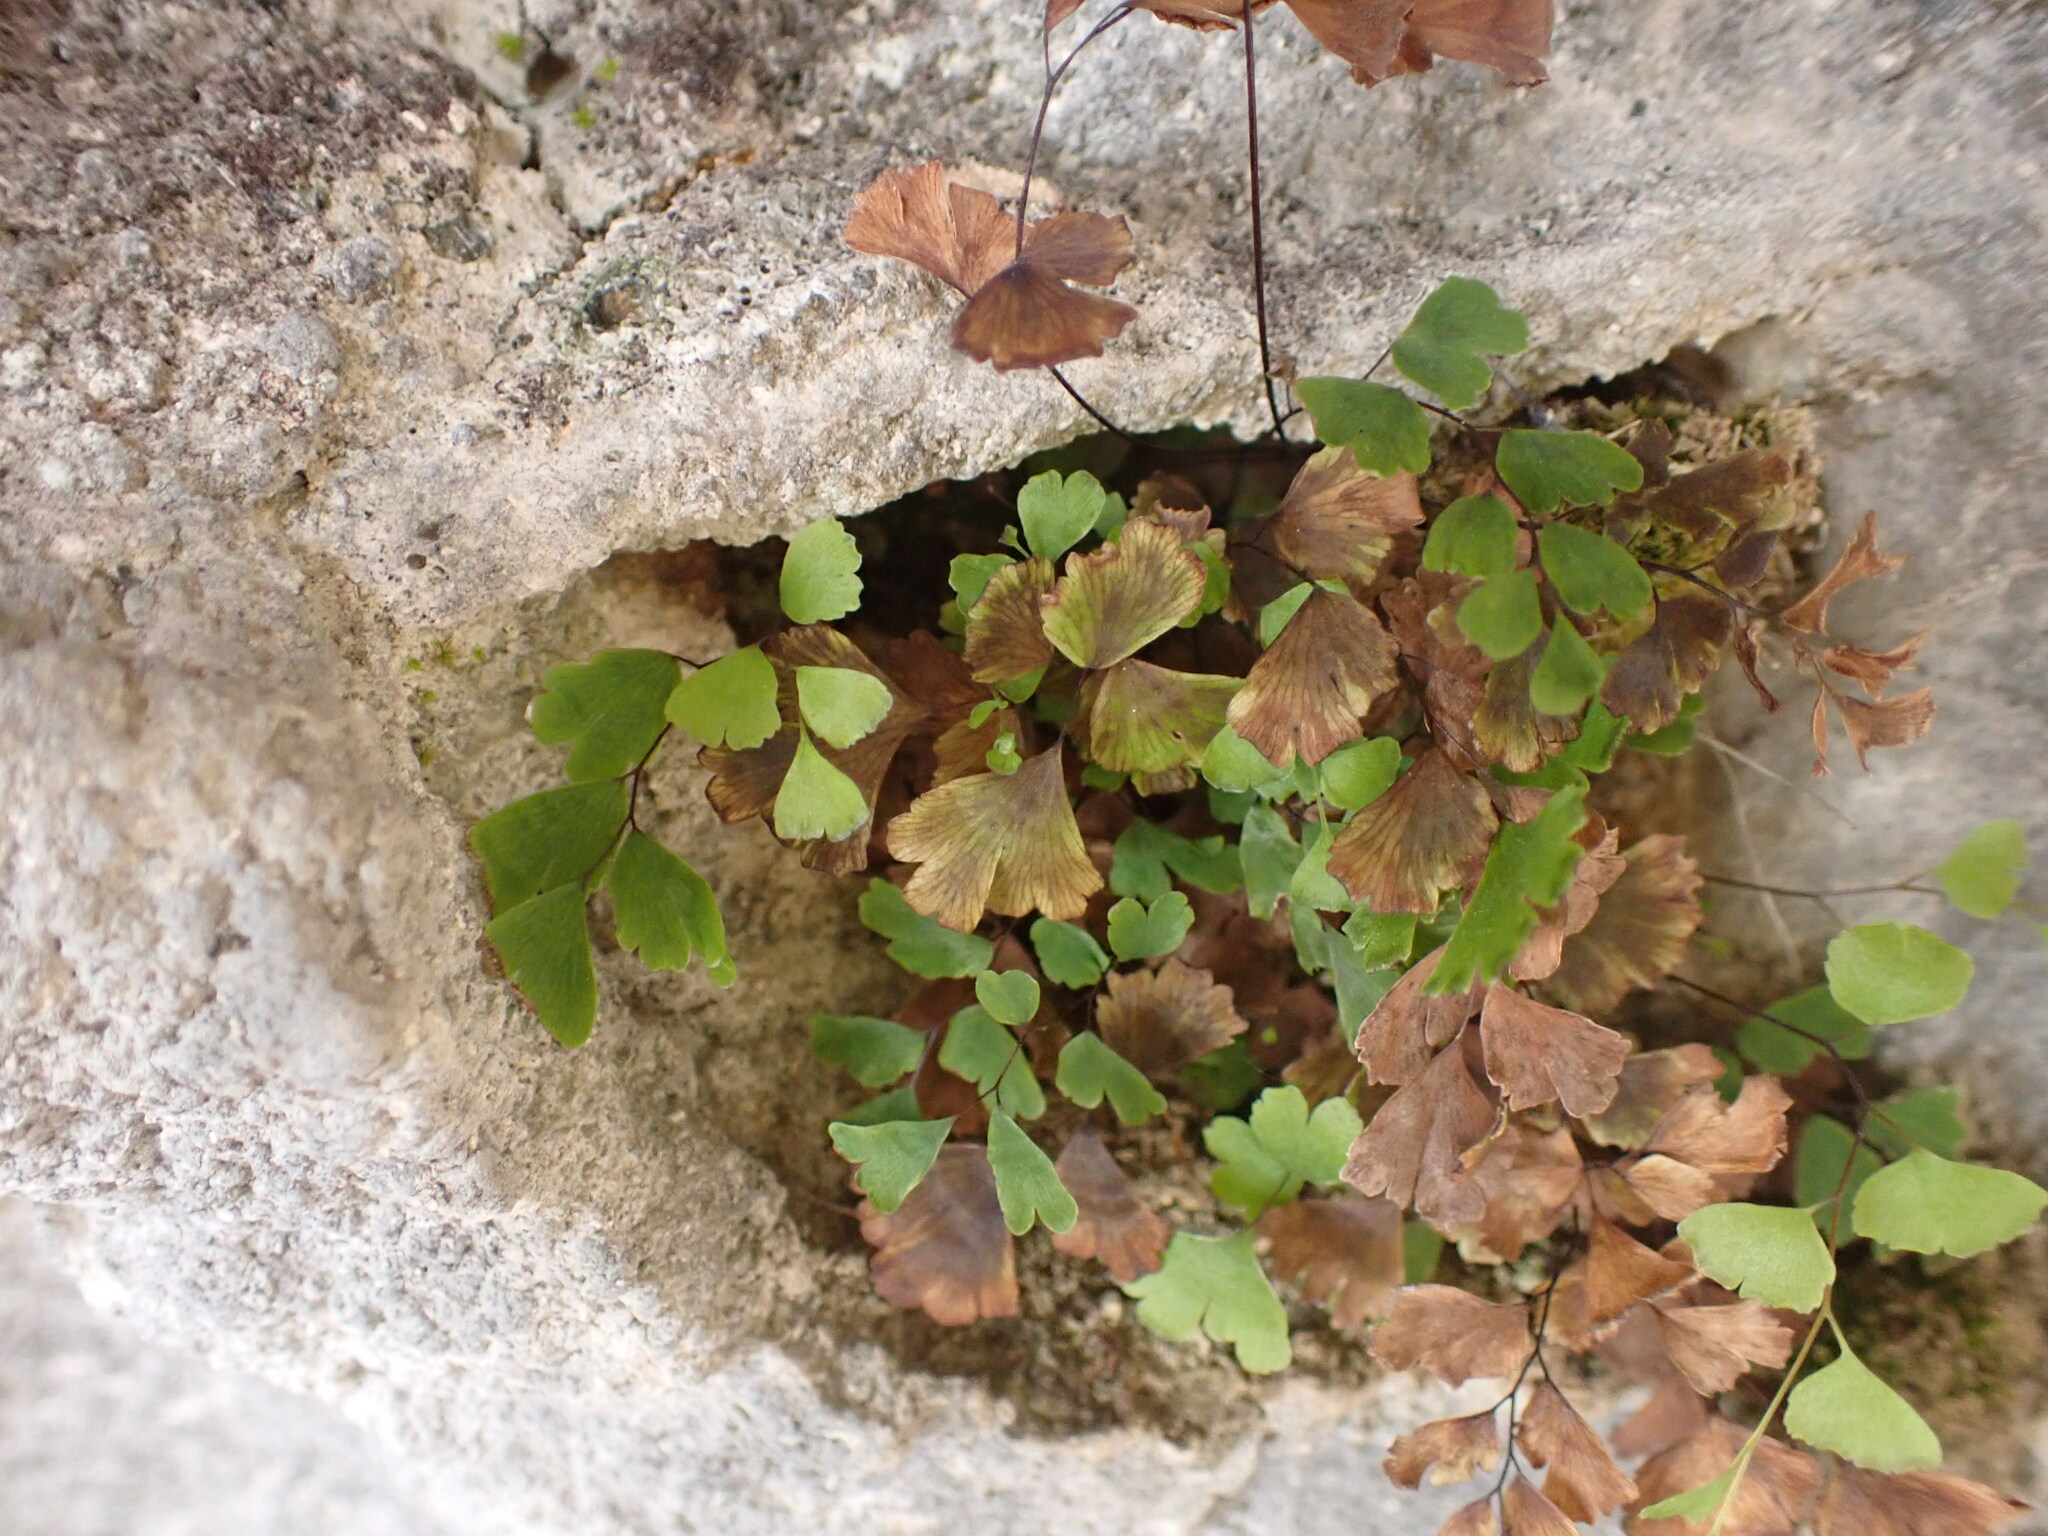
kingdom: Plantae
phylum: Tracheophyta
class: Polypodiopsida
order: Polypodiales
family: Pteridaceae
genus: Adiantum
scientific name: Adiantum capillus-veneris
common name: Maidenhair fern
